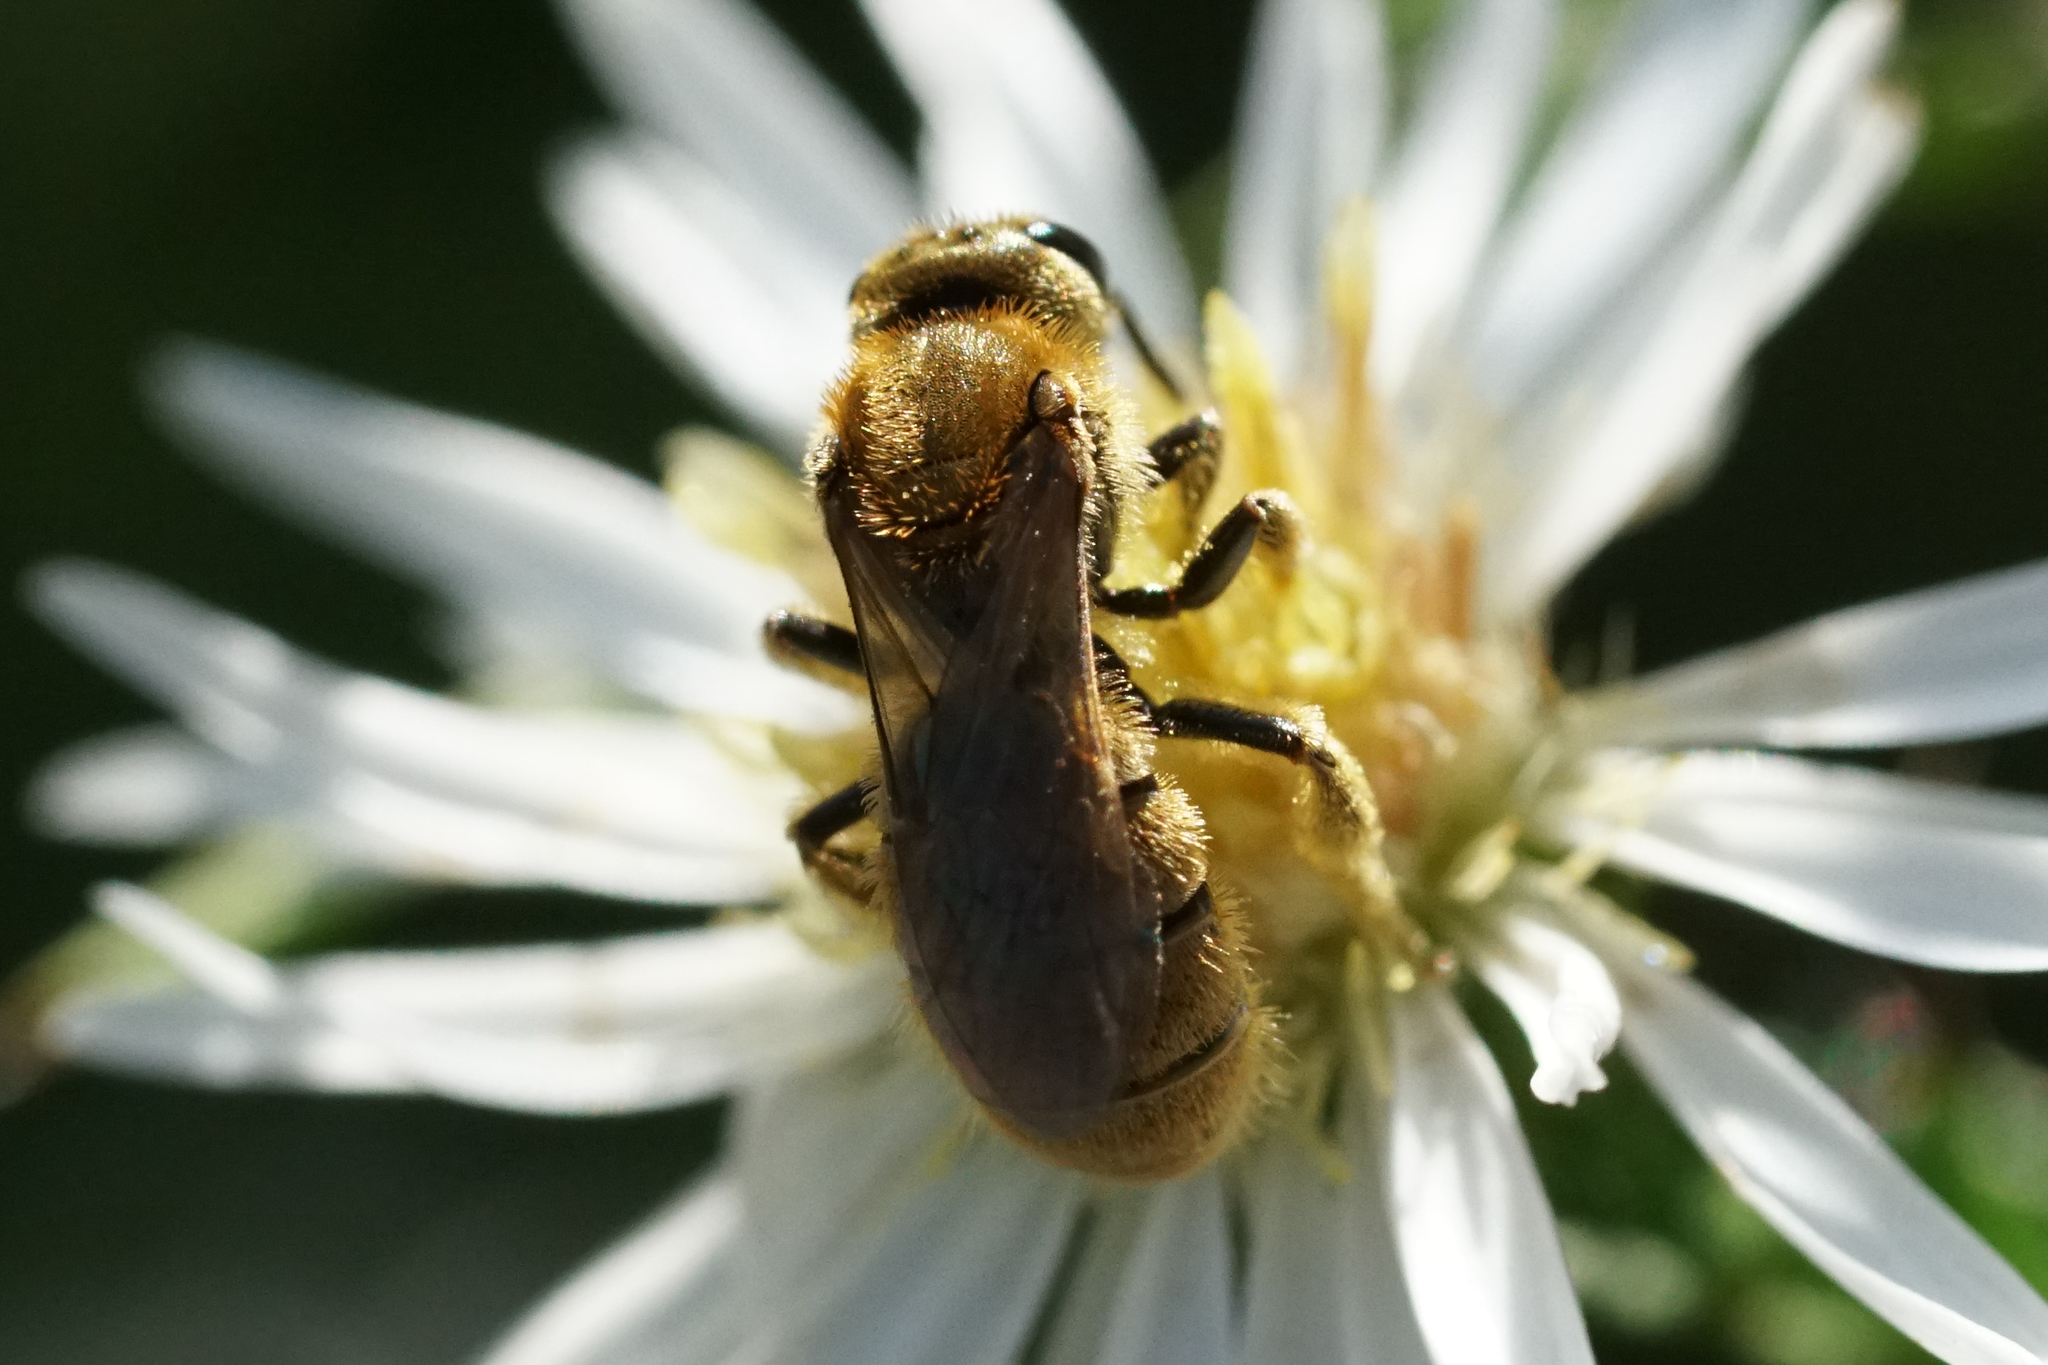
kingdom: Animalia
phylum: Arthropoda
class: Insecta
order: Hymenoptera
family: Halictidae
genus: Lasioglossum
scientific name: Lasioglossum
